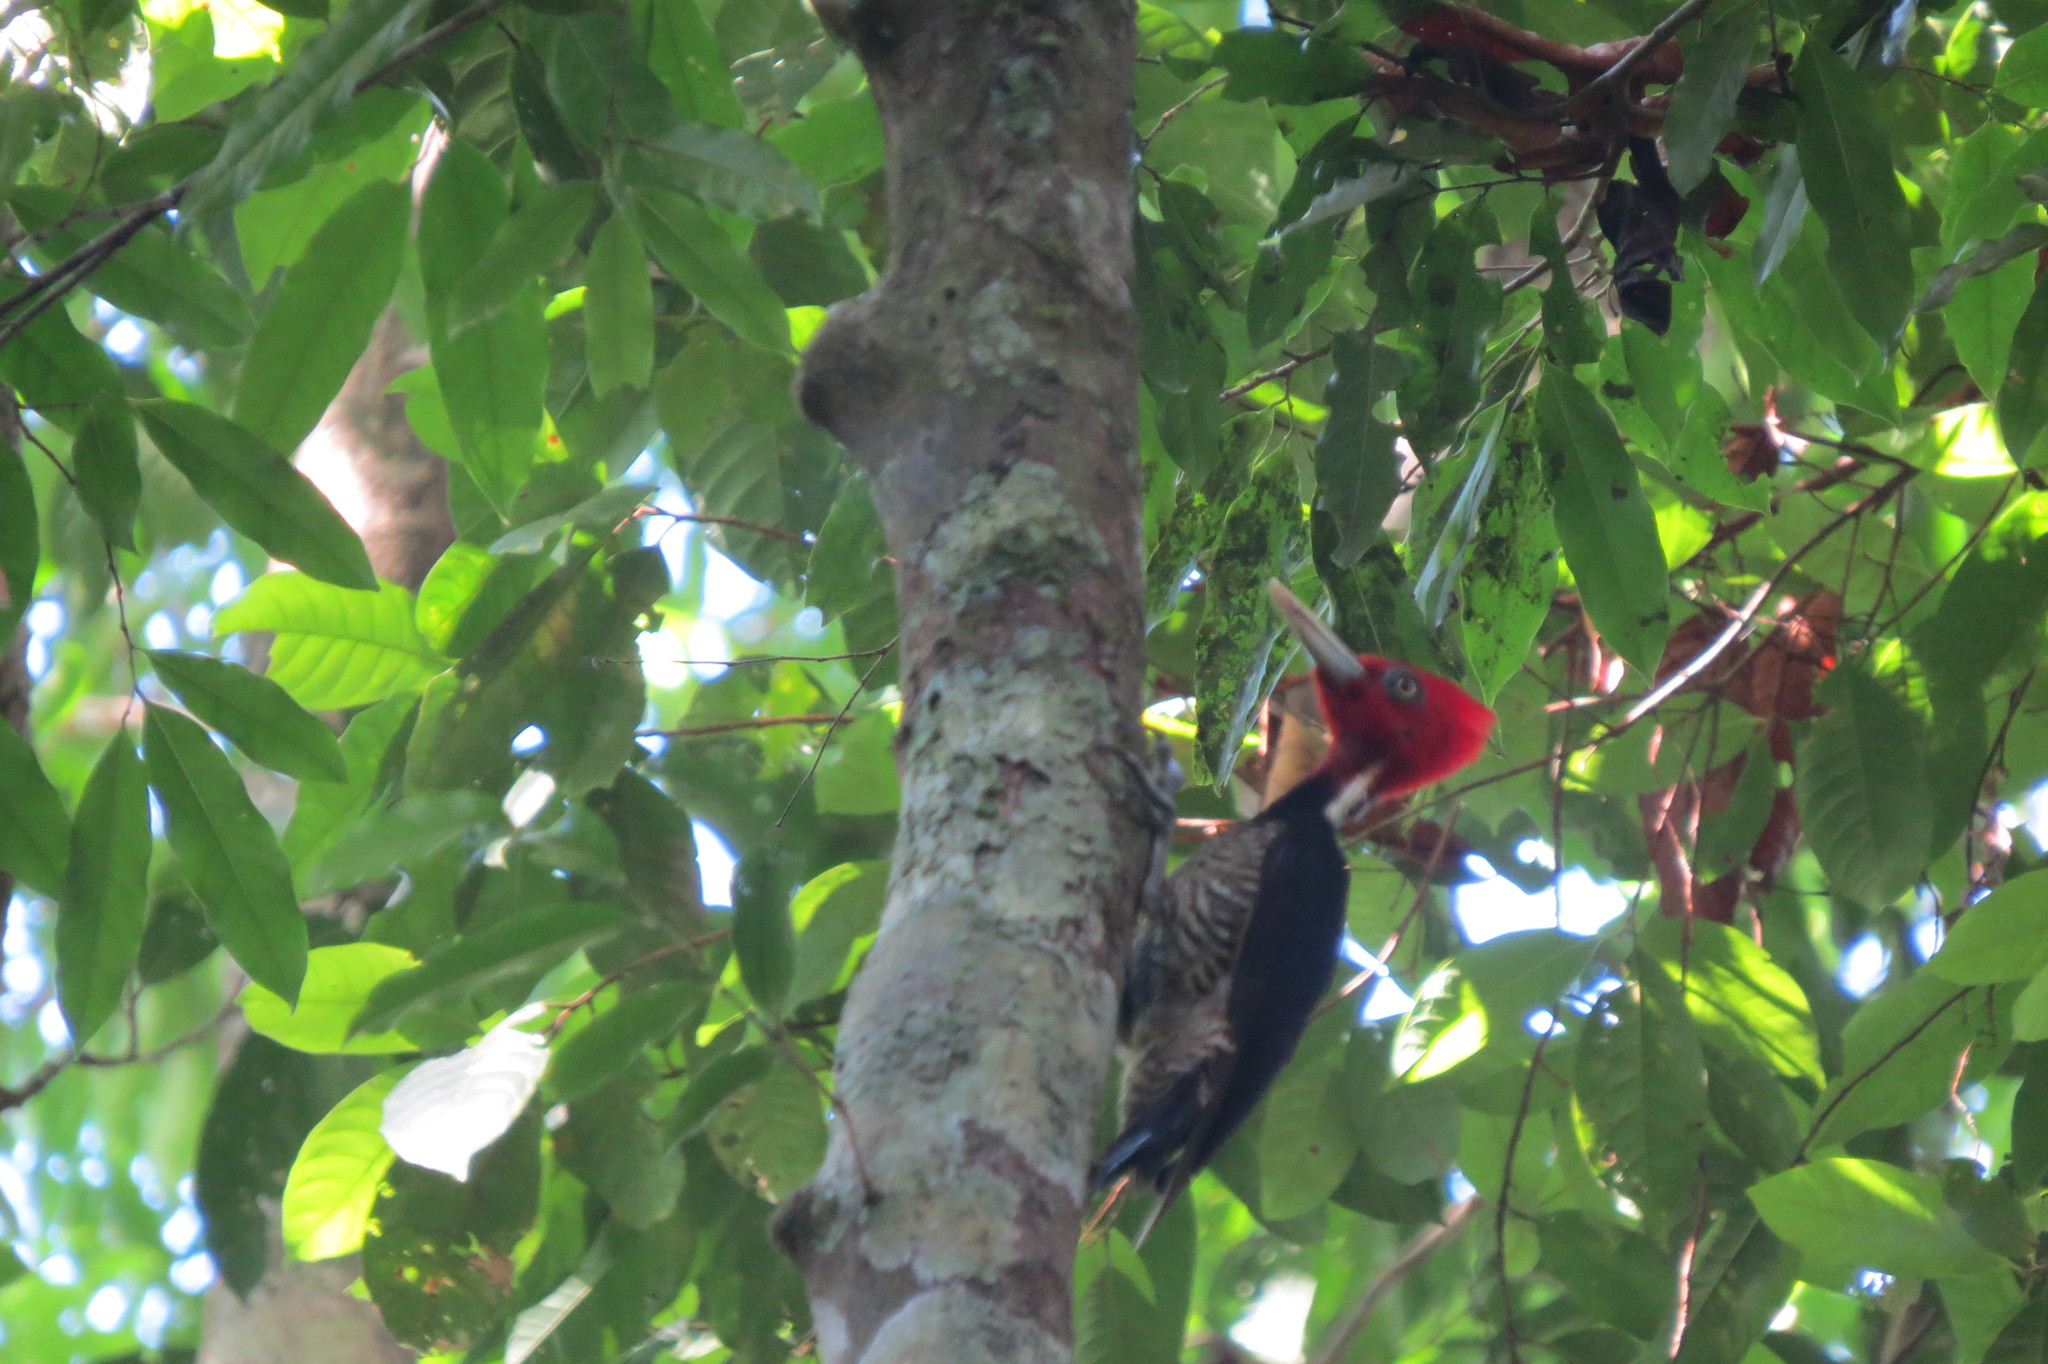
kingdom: Animalia
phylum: Chordata
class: Aves
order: Piciformes
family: Picidae
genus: Campephilus
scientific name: Campephilus guatemalensis
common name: Pale-billed woodpecker
